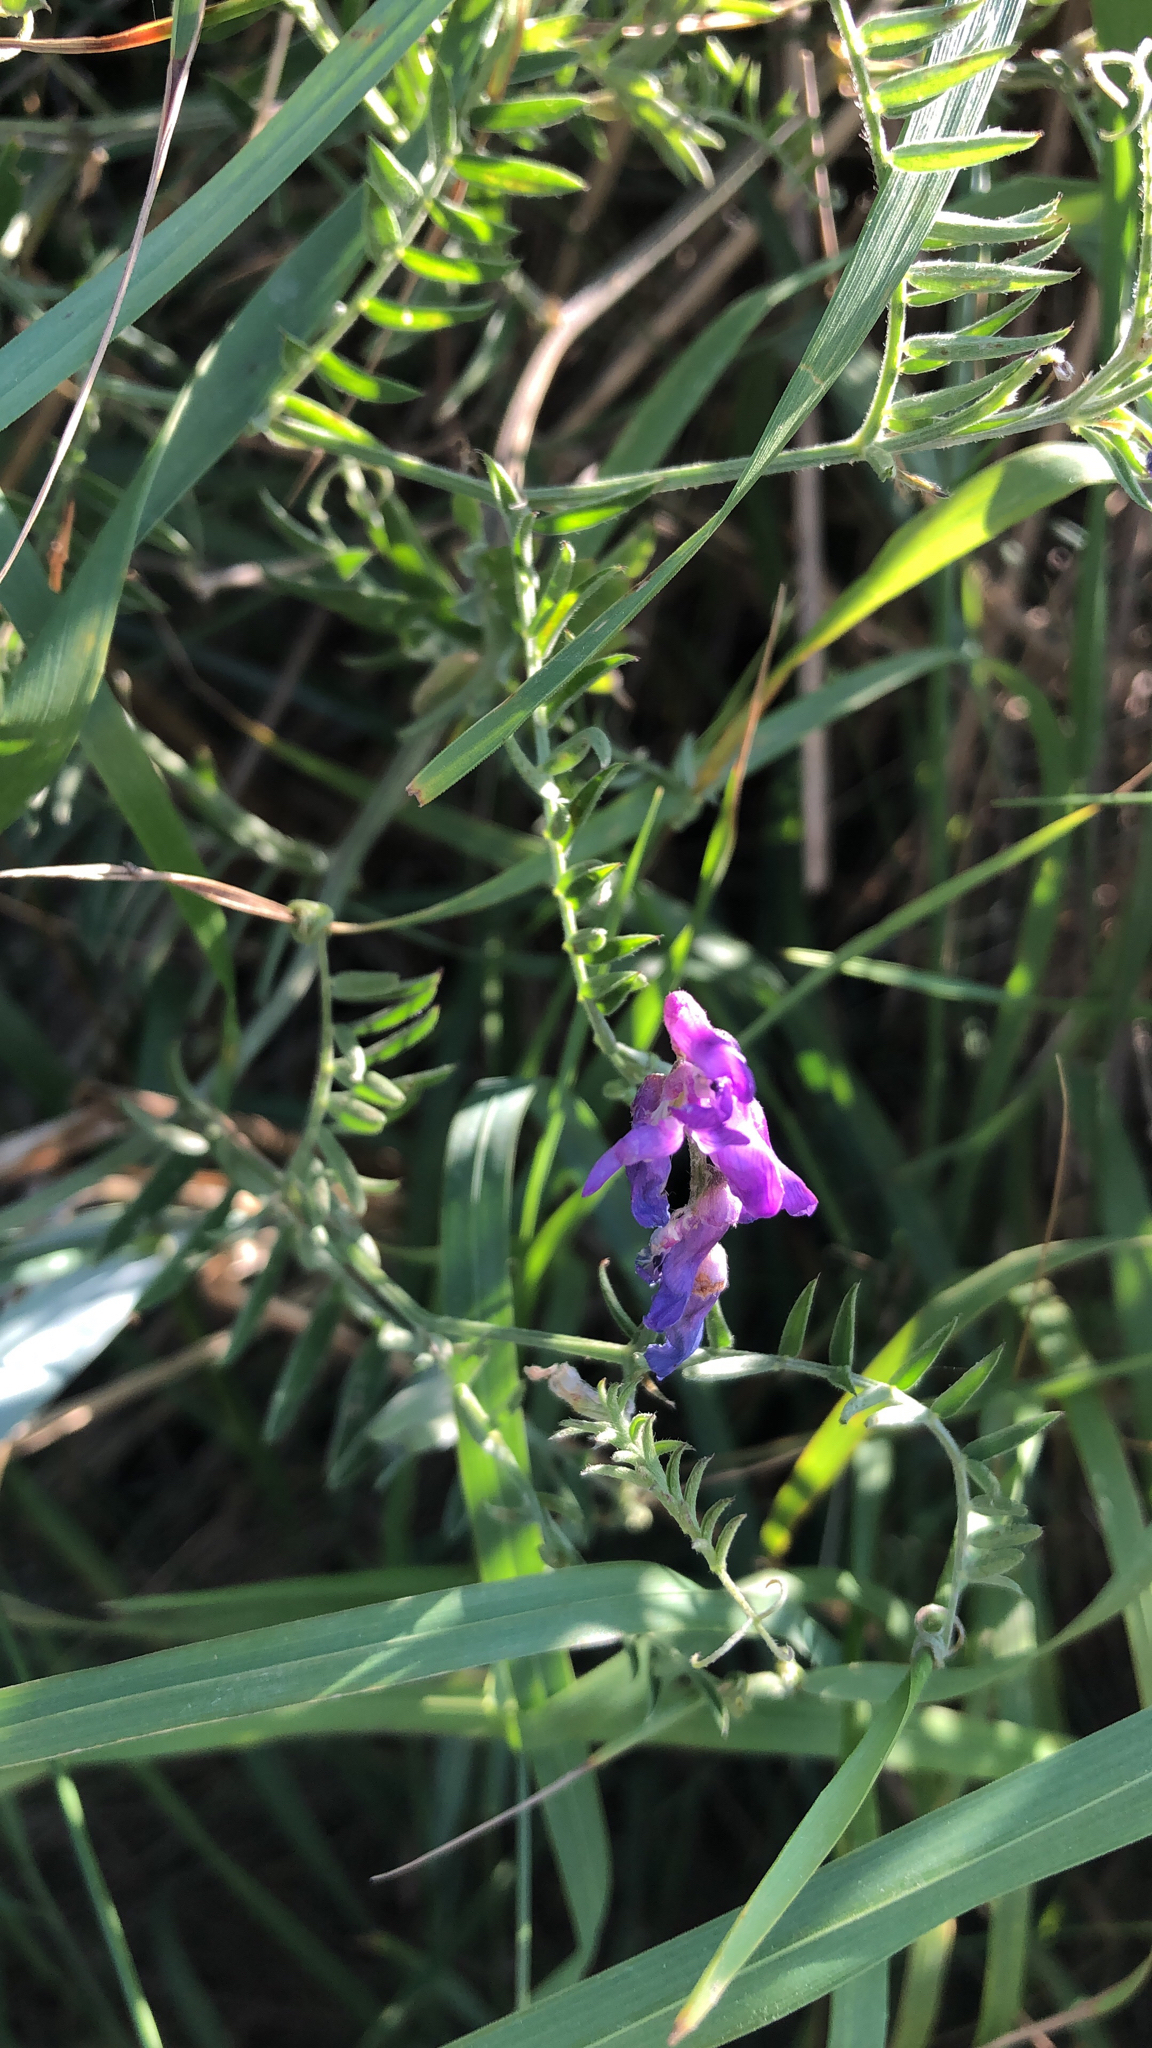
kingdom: Plantae
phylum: Tracheophyta
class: Magnoliopsida
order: Fabales
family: Fabaceae
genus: Vicia
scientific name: Vicia cracca
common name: Bird vetch
